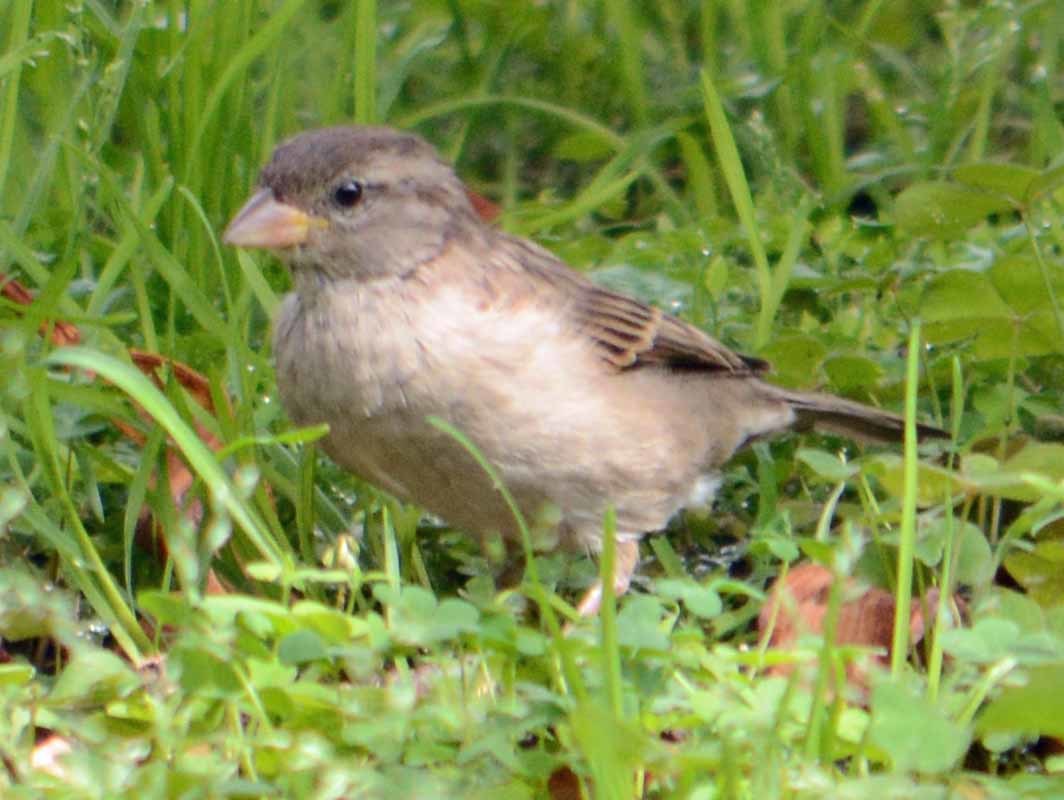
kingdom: Animalia
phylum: Chordata
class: Aves
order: Passeriformes
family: Passeridae
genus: Passer
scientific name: Passer domesticus
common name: House sparrow
